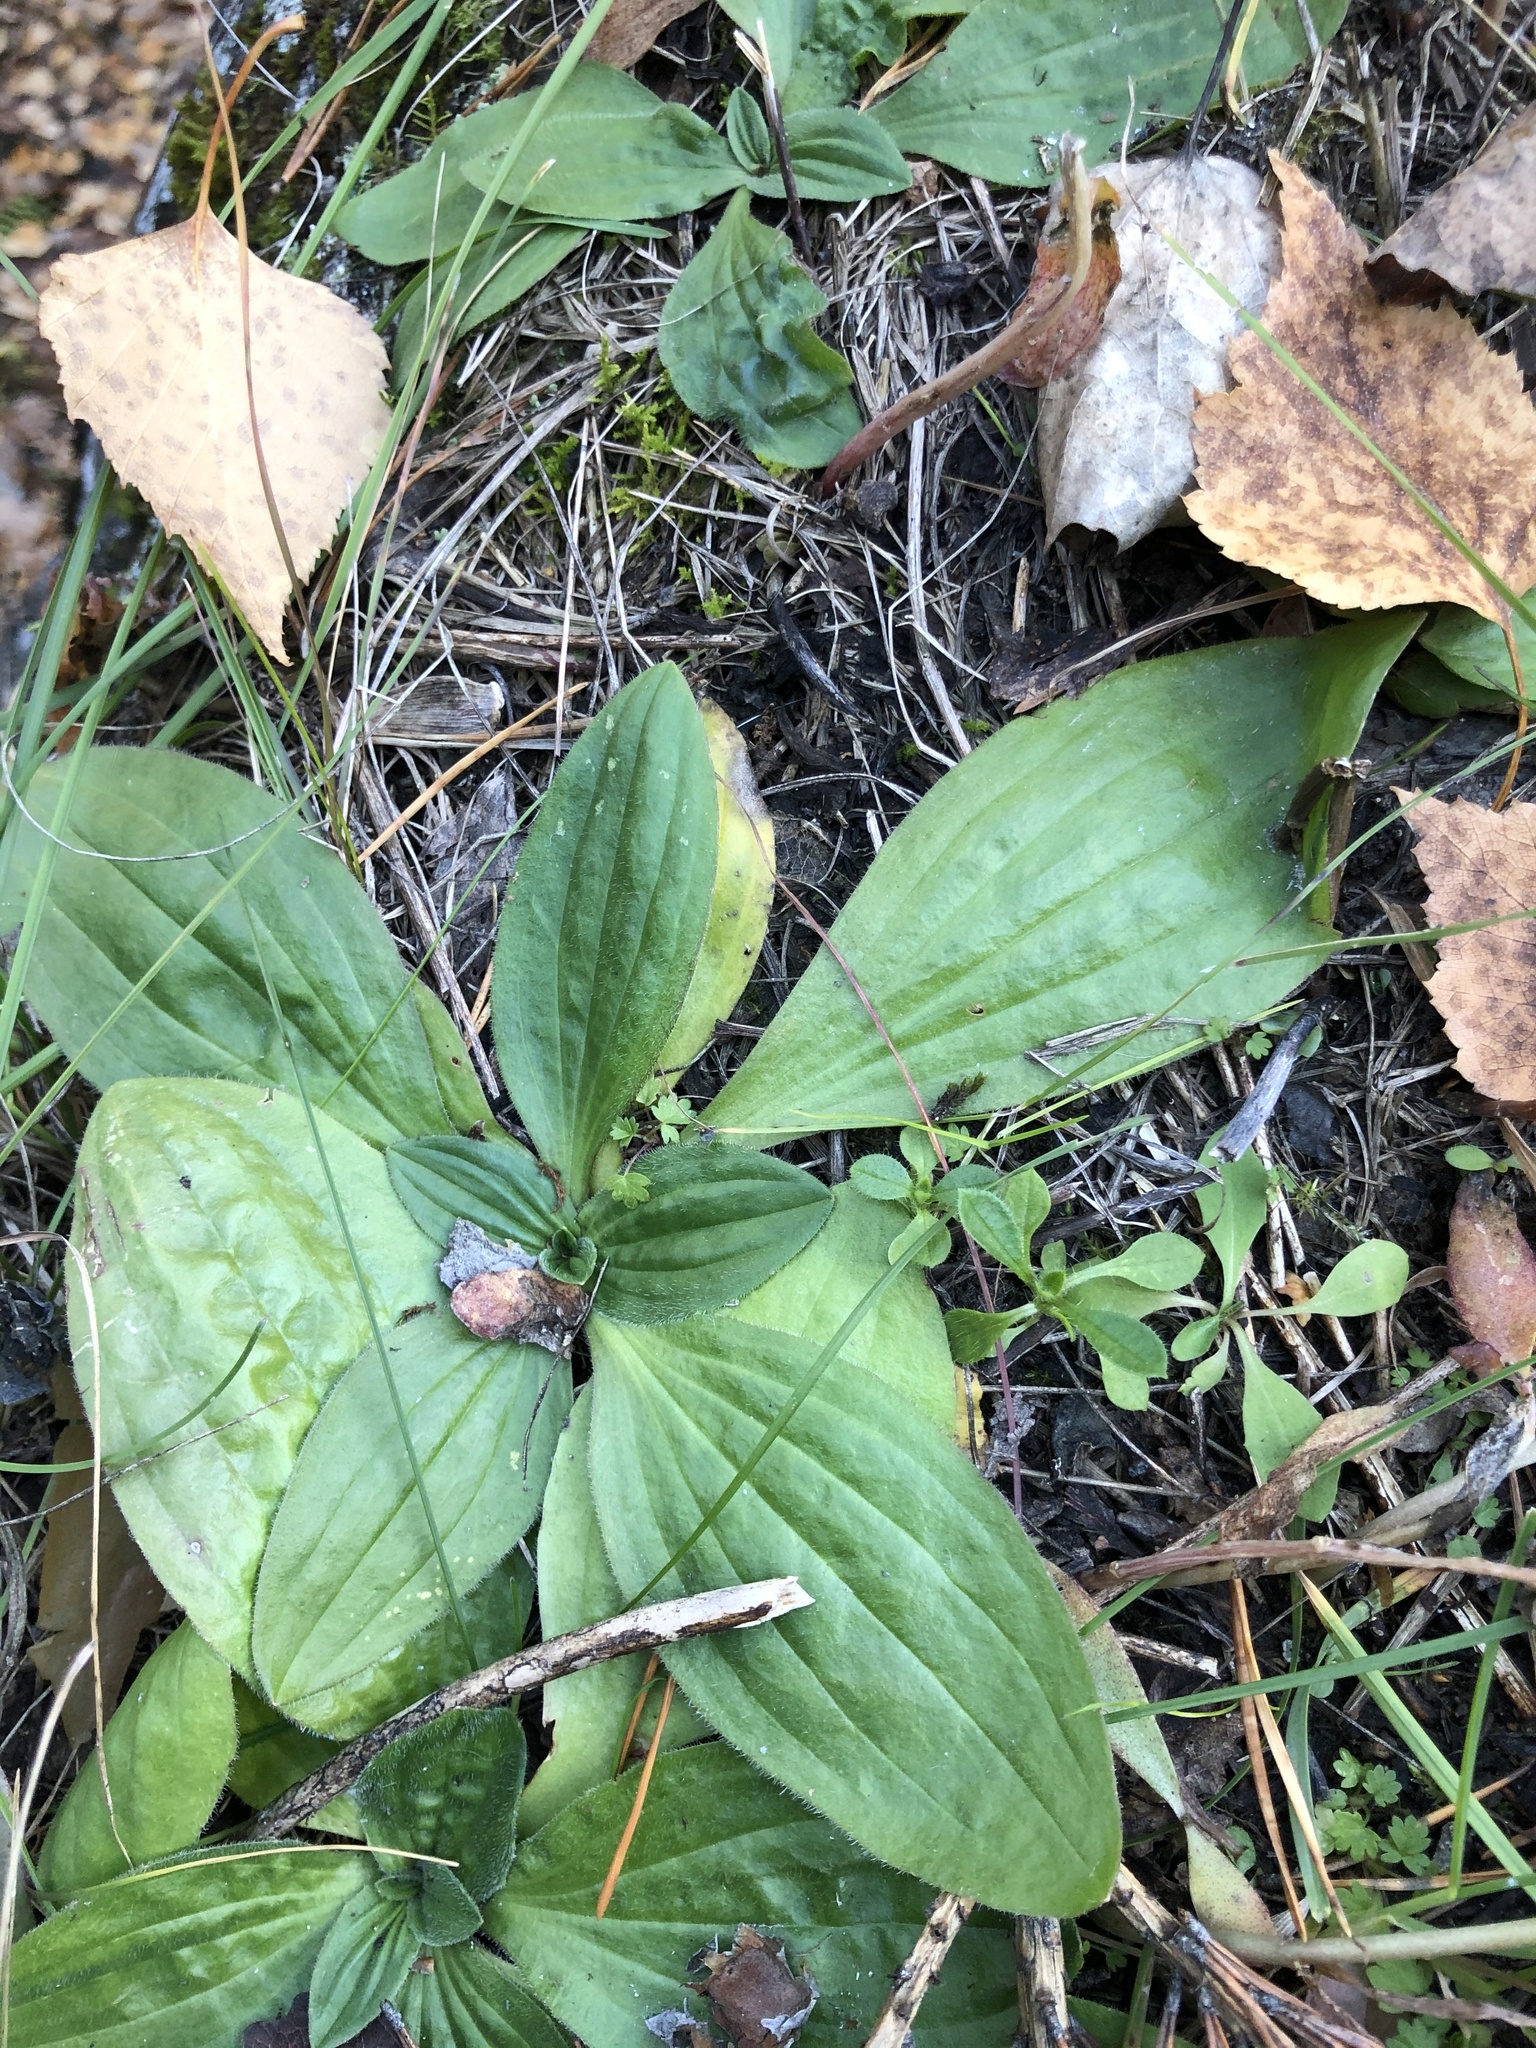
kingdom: Plantae
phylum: Tracheophyta
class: Magnoliopsida
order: Lamiales
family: Plantaginaceae
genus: Plantago
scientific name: Plantago media
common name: Hoary plantain
